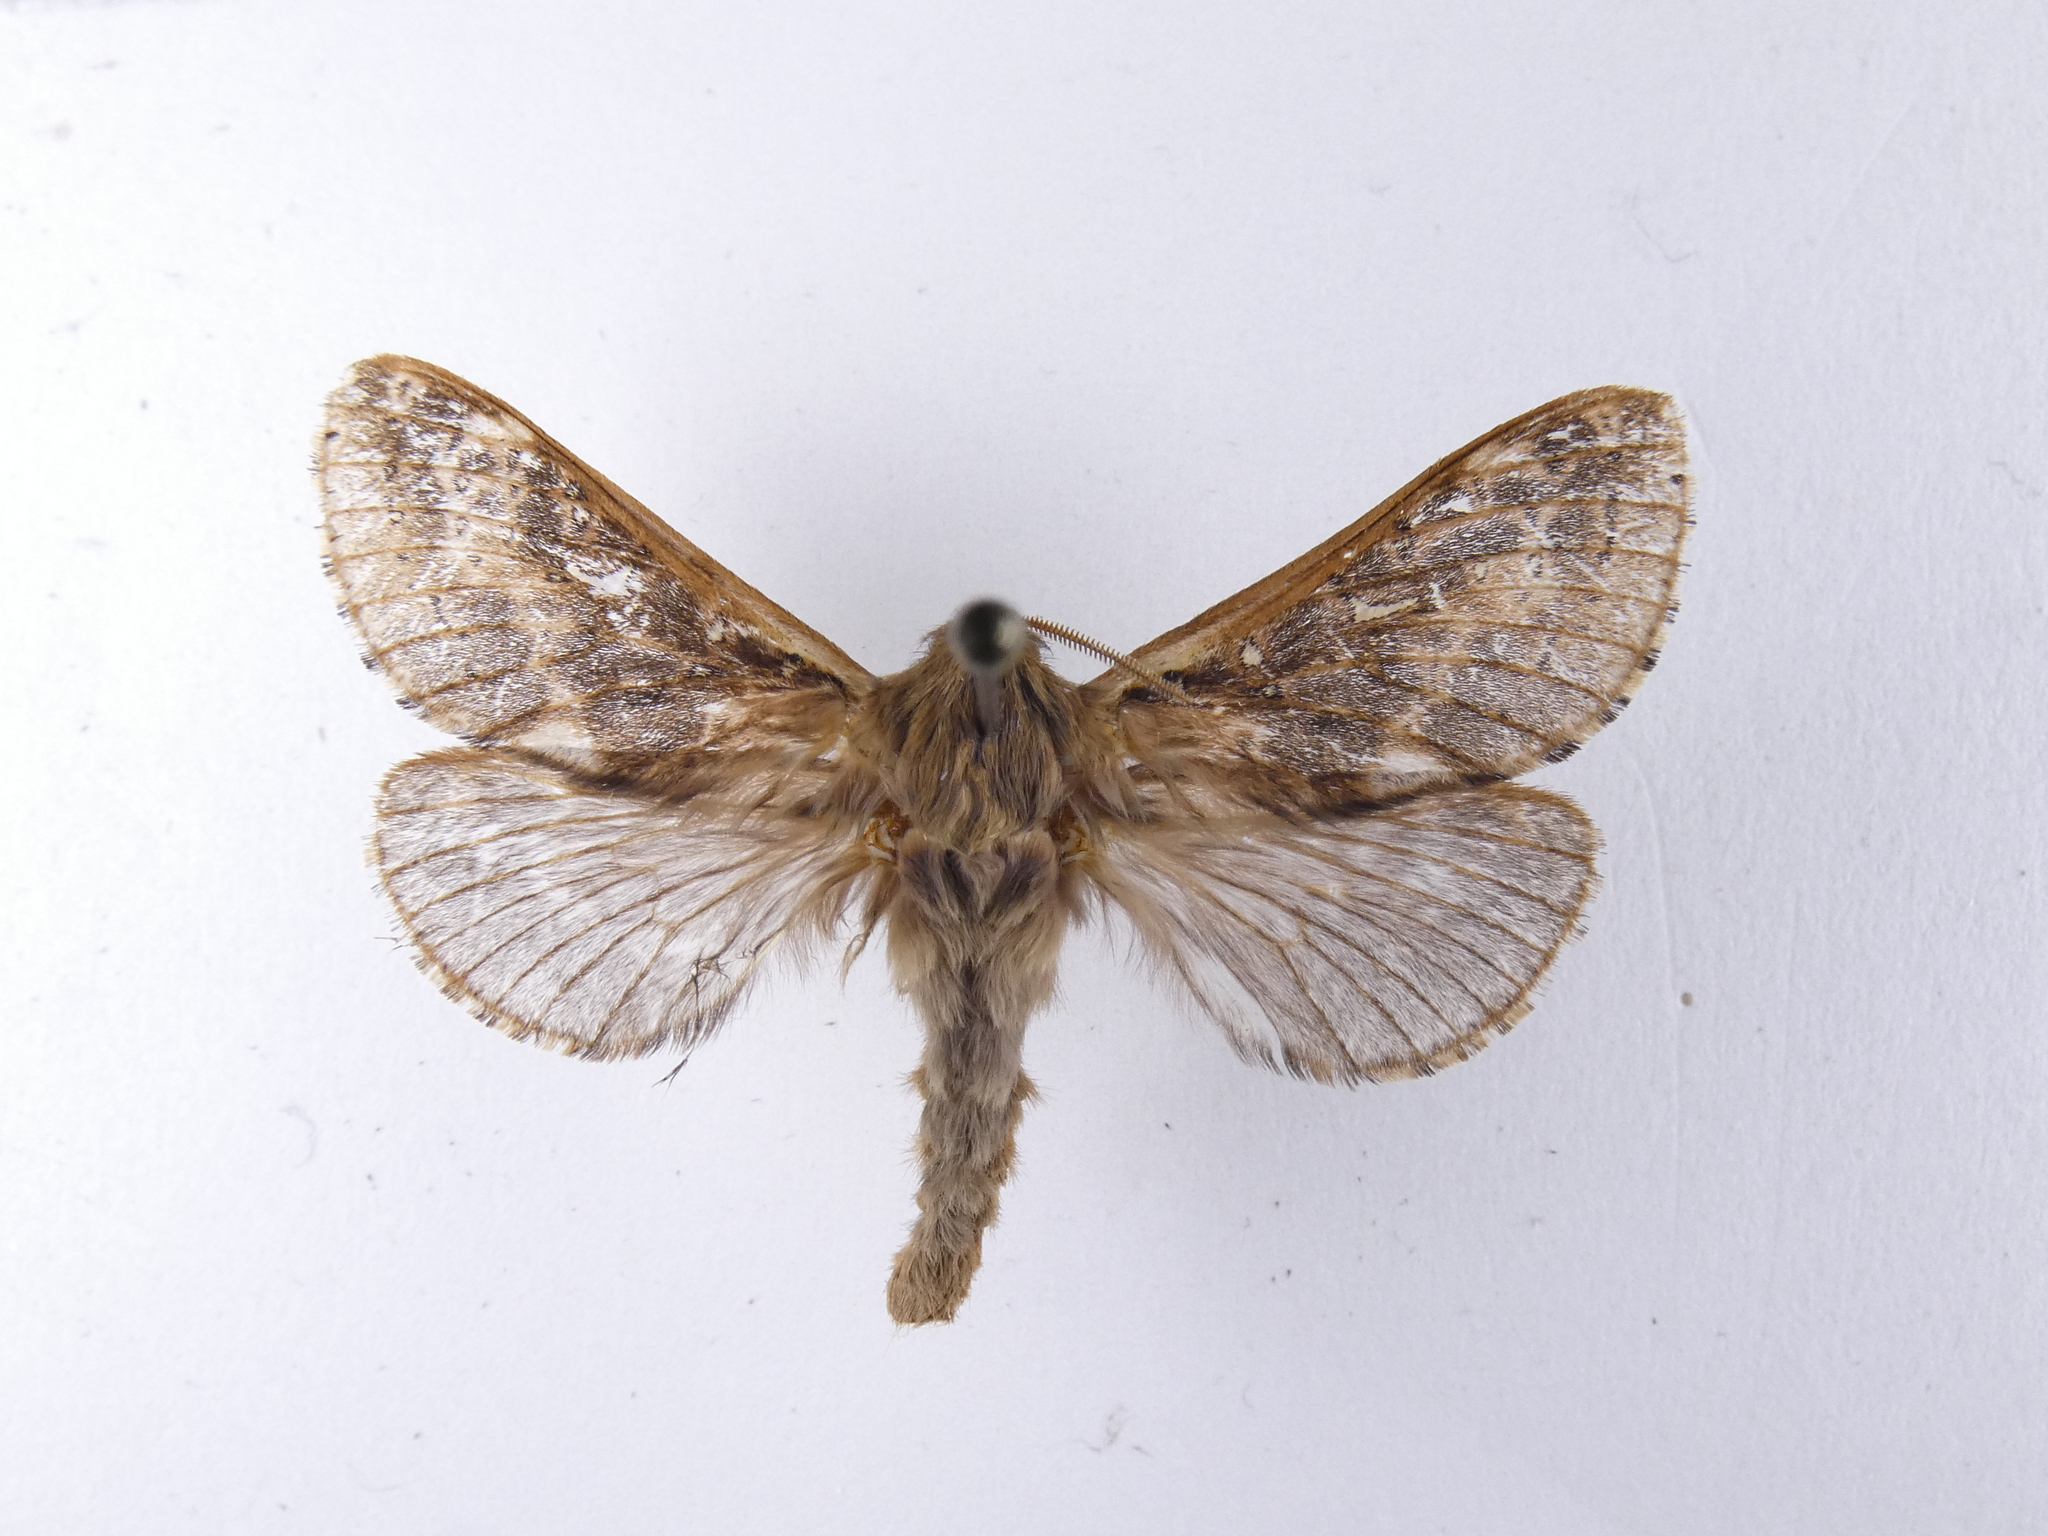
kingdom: Animalia
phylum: Arthropoda
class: Insecta
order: Lepidoptera
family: Hepialidae
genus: Wiseana
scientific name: Wiseana cervinata
